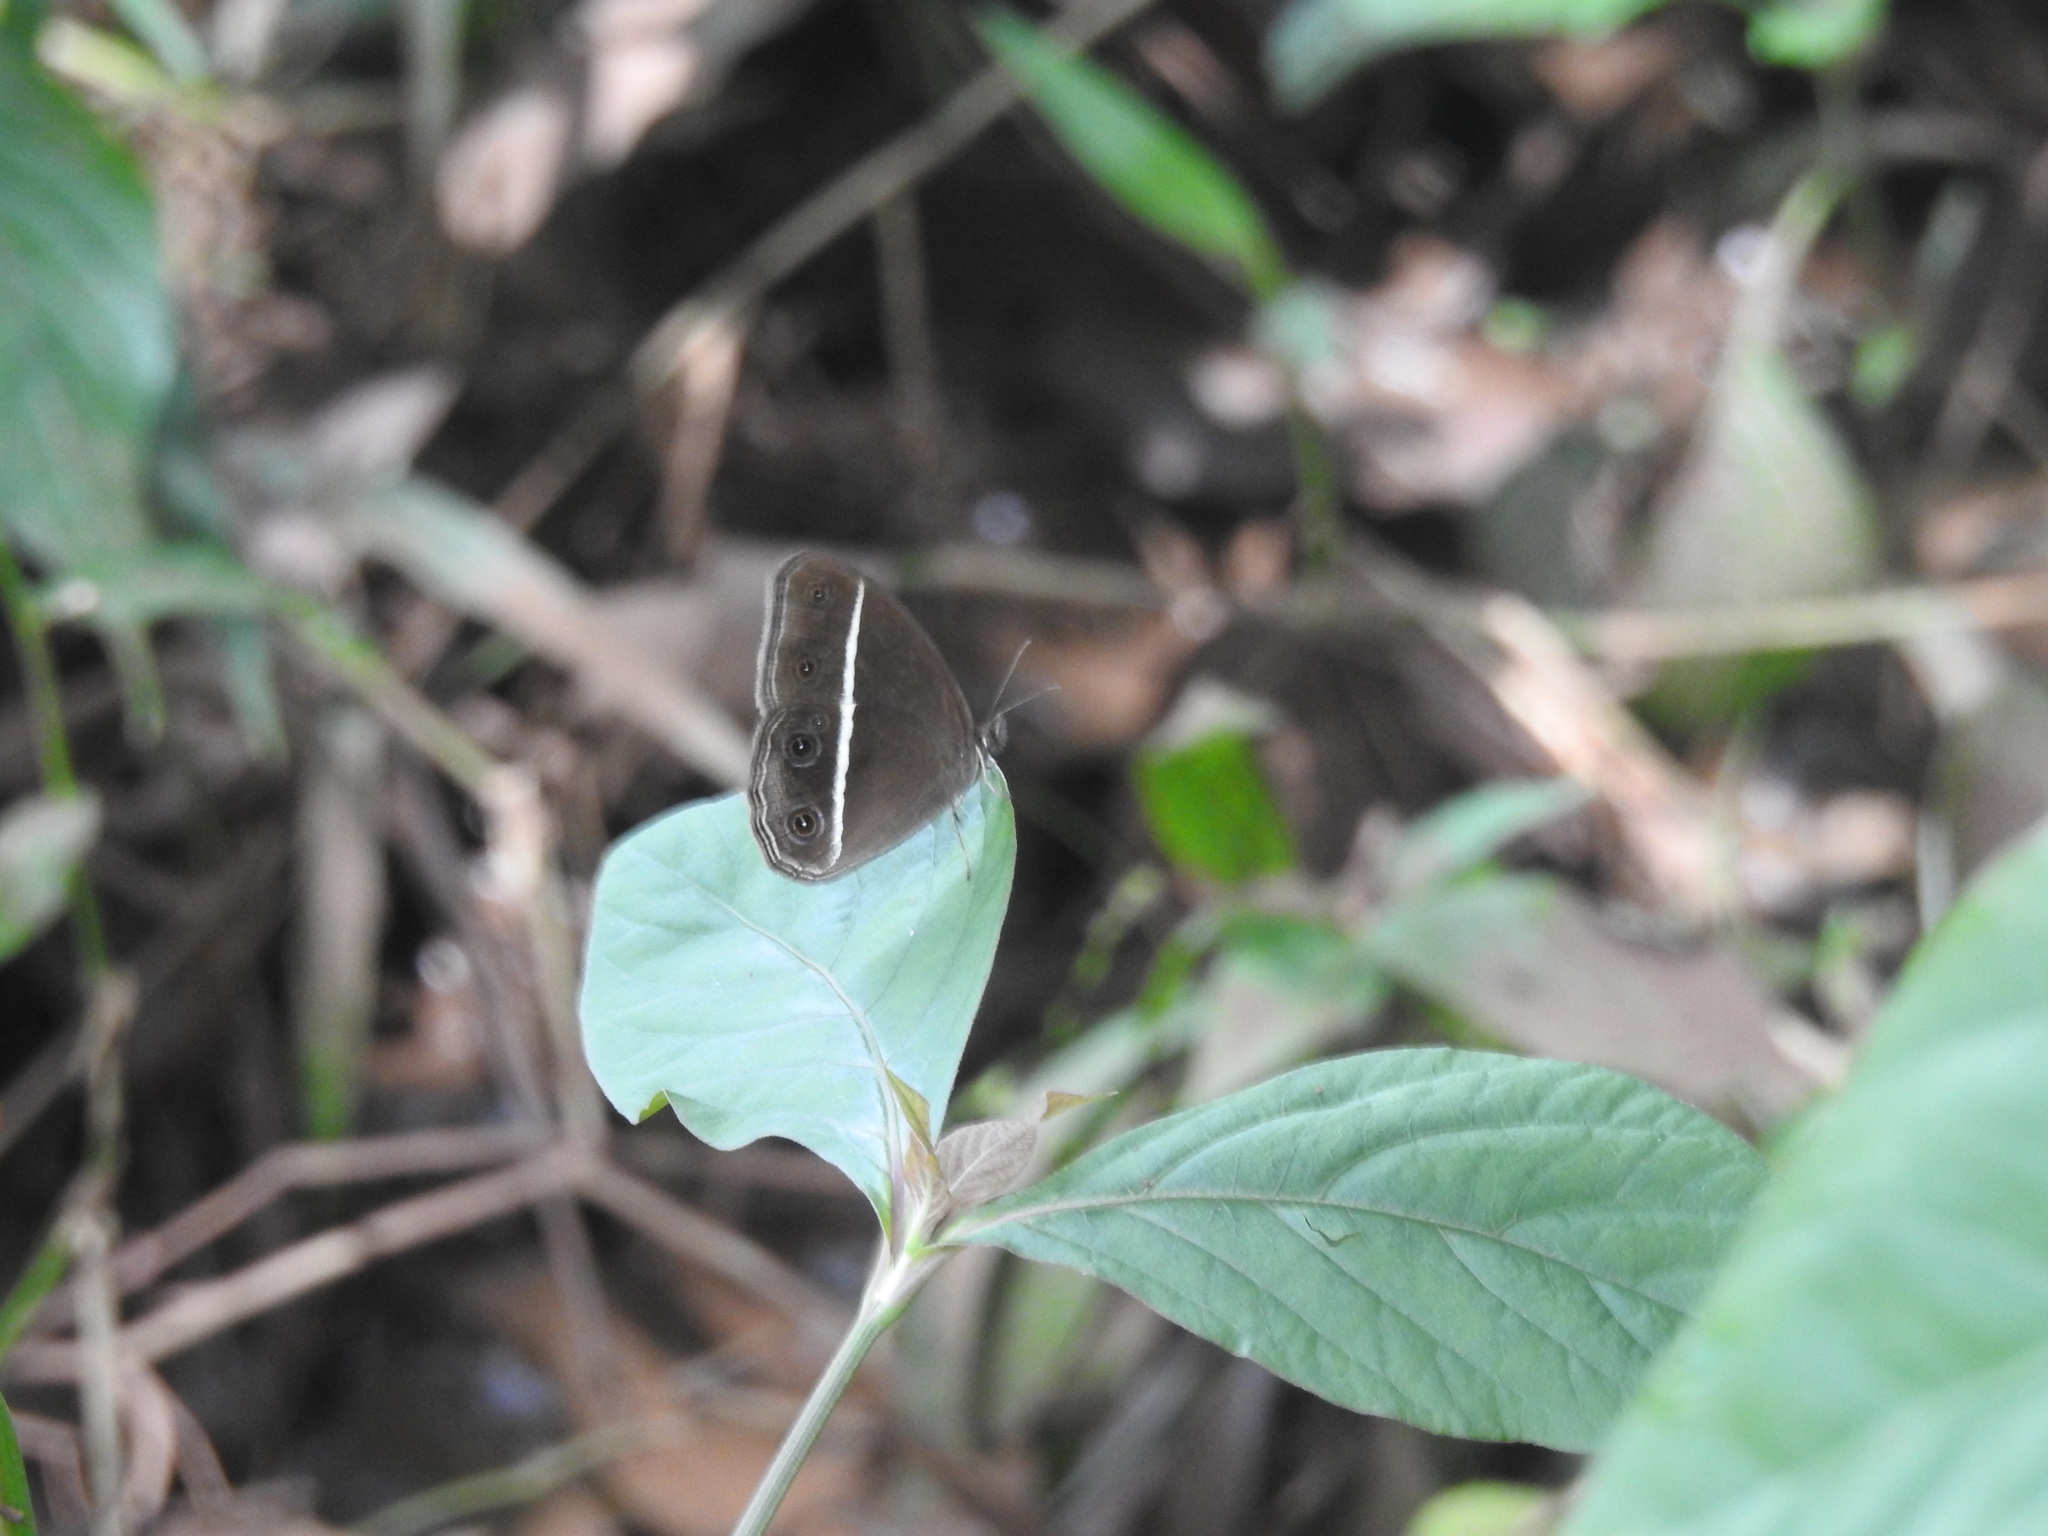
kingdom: Animalia
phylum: Arthropoda
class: Insecta
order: Lepidoptera
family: Nymphalidae
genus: Orsotriaena
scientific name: Orsotriaena medus
